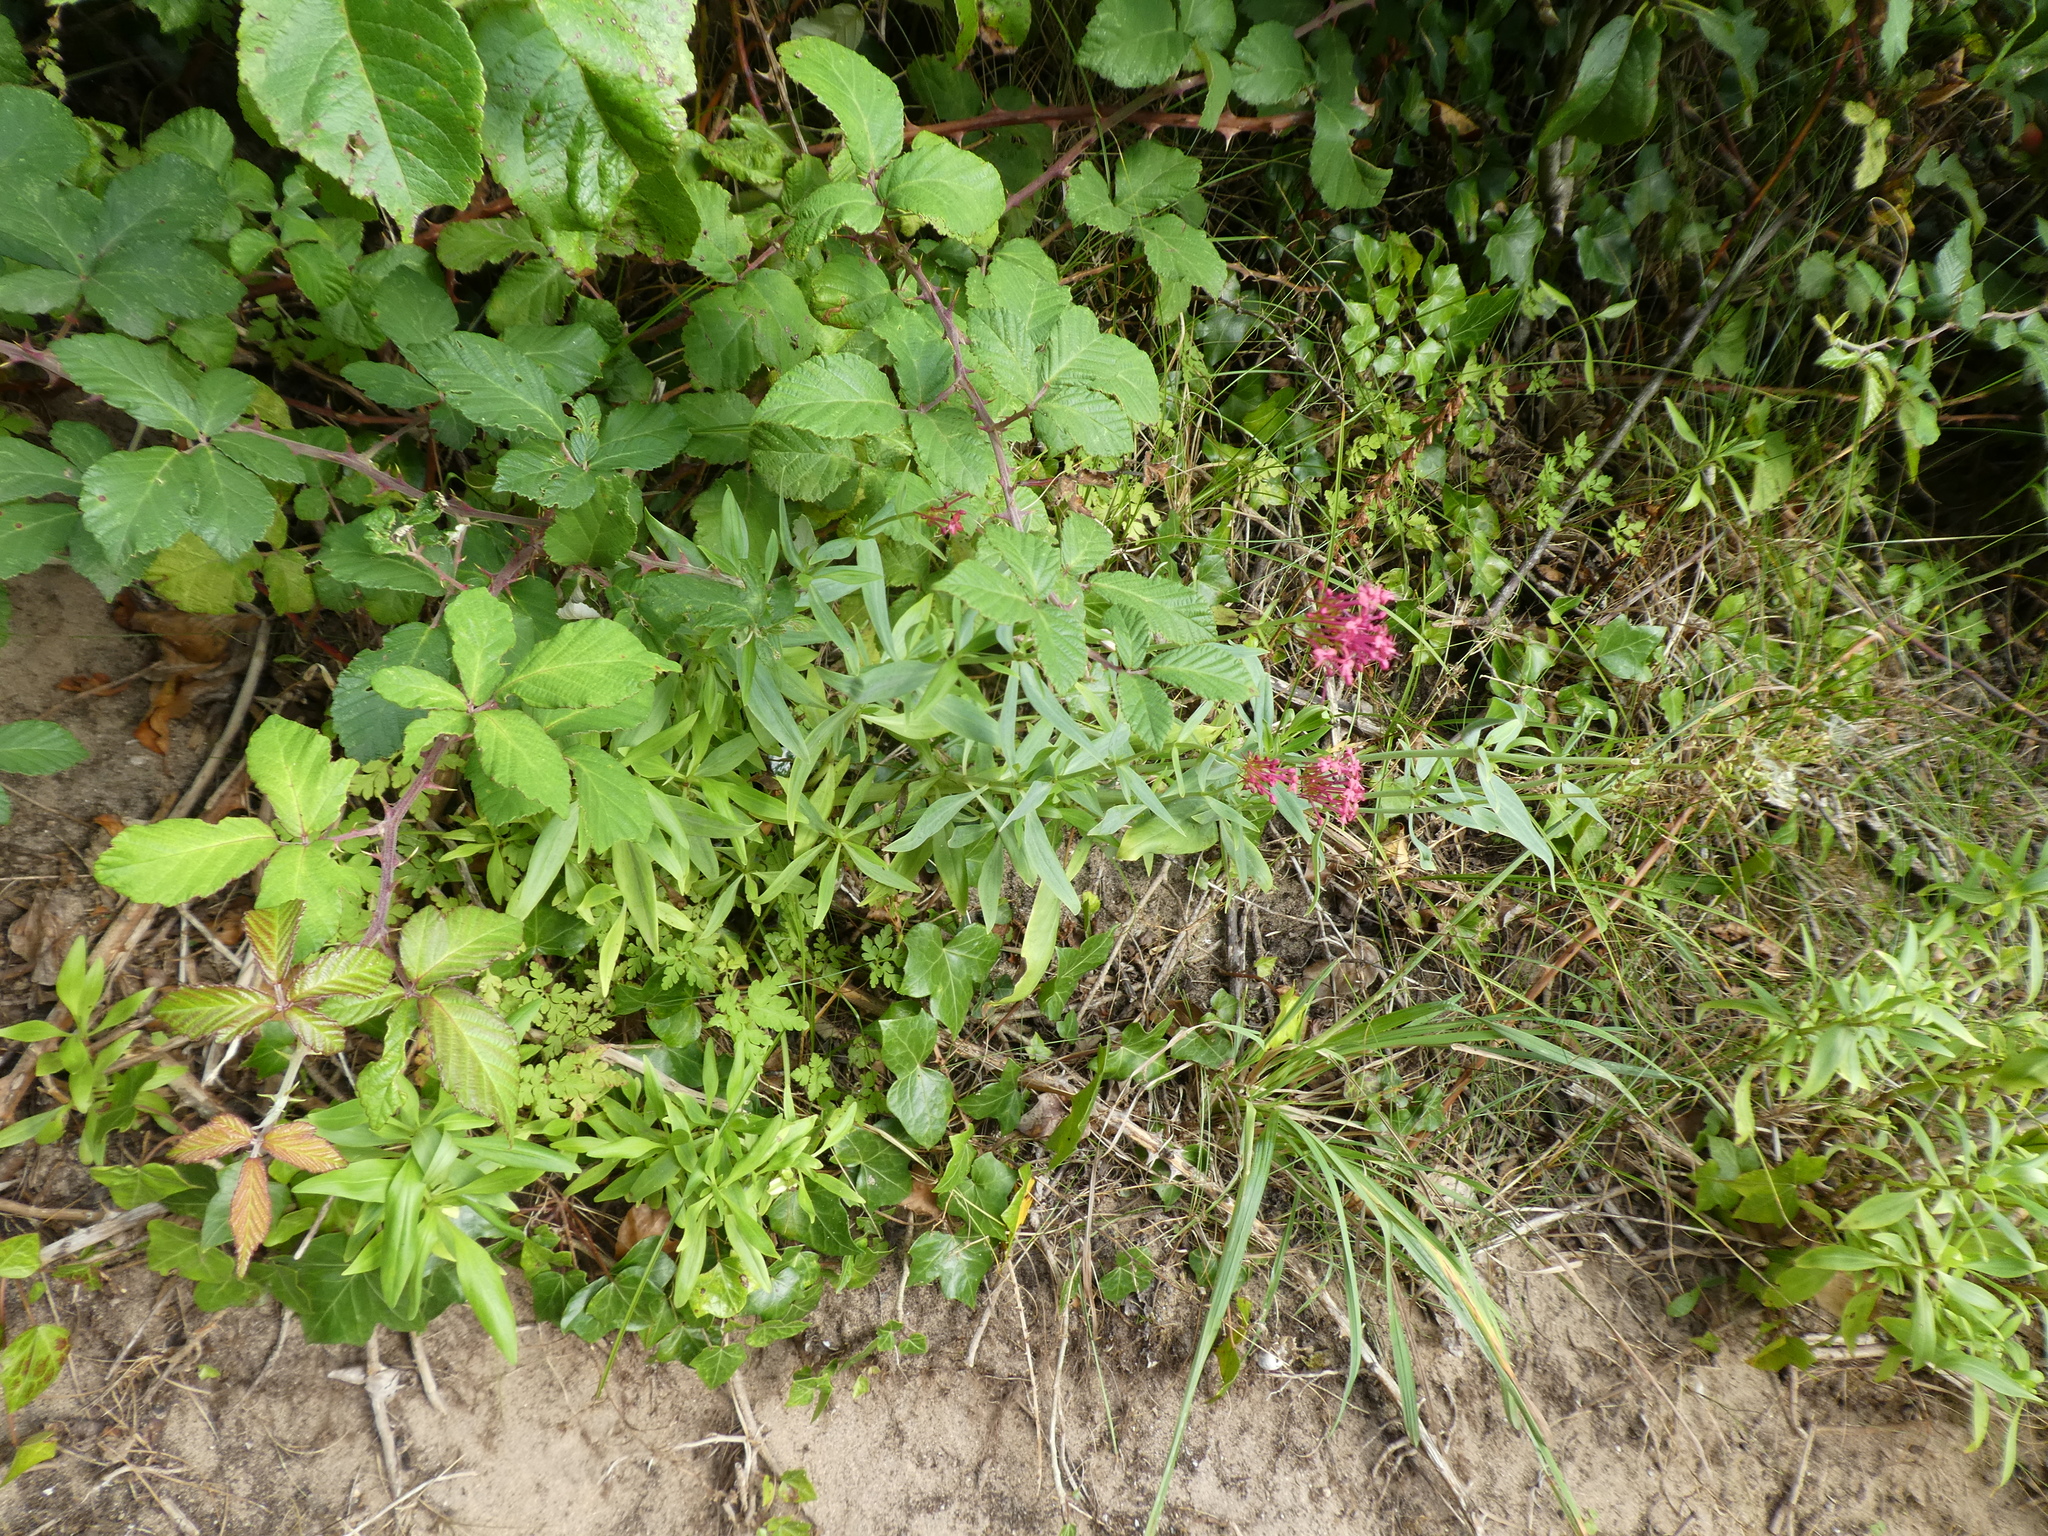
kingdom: Plantae
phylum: Tracheophyta
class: Magnoliopsida
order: Dipsacales
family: Caprifoliaceae
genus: Centranthus
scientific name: Centranthus ruber
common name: Red valerian
